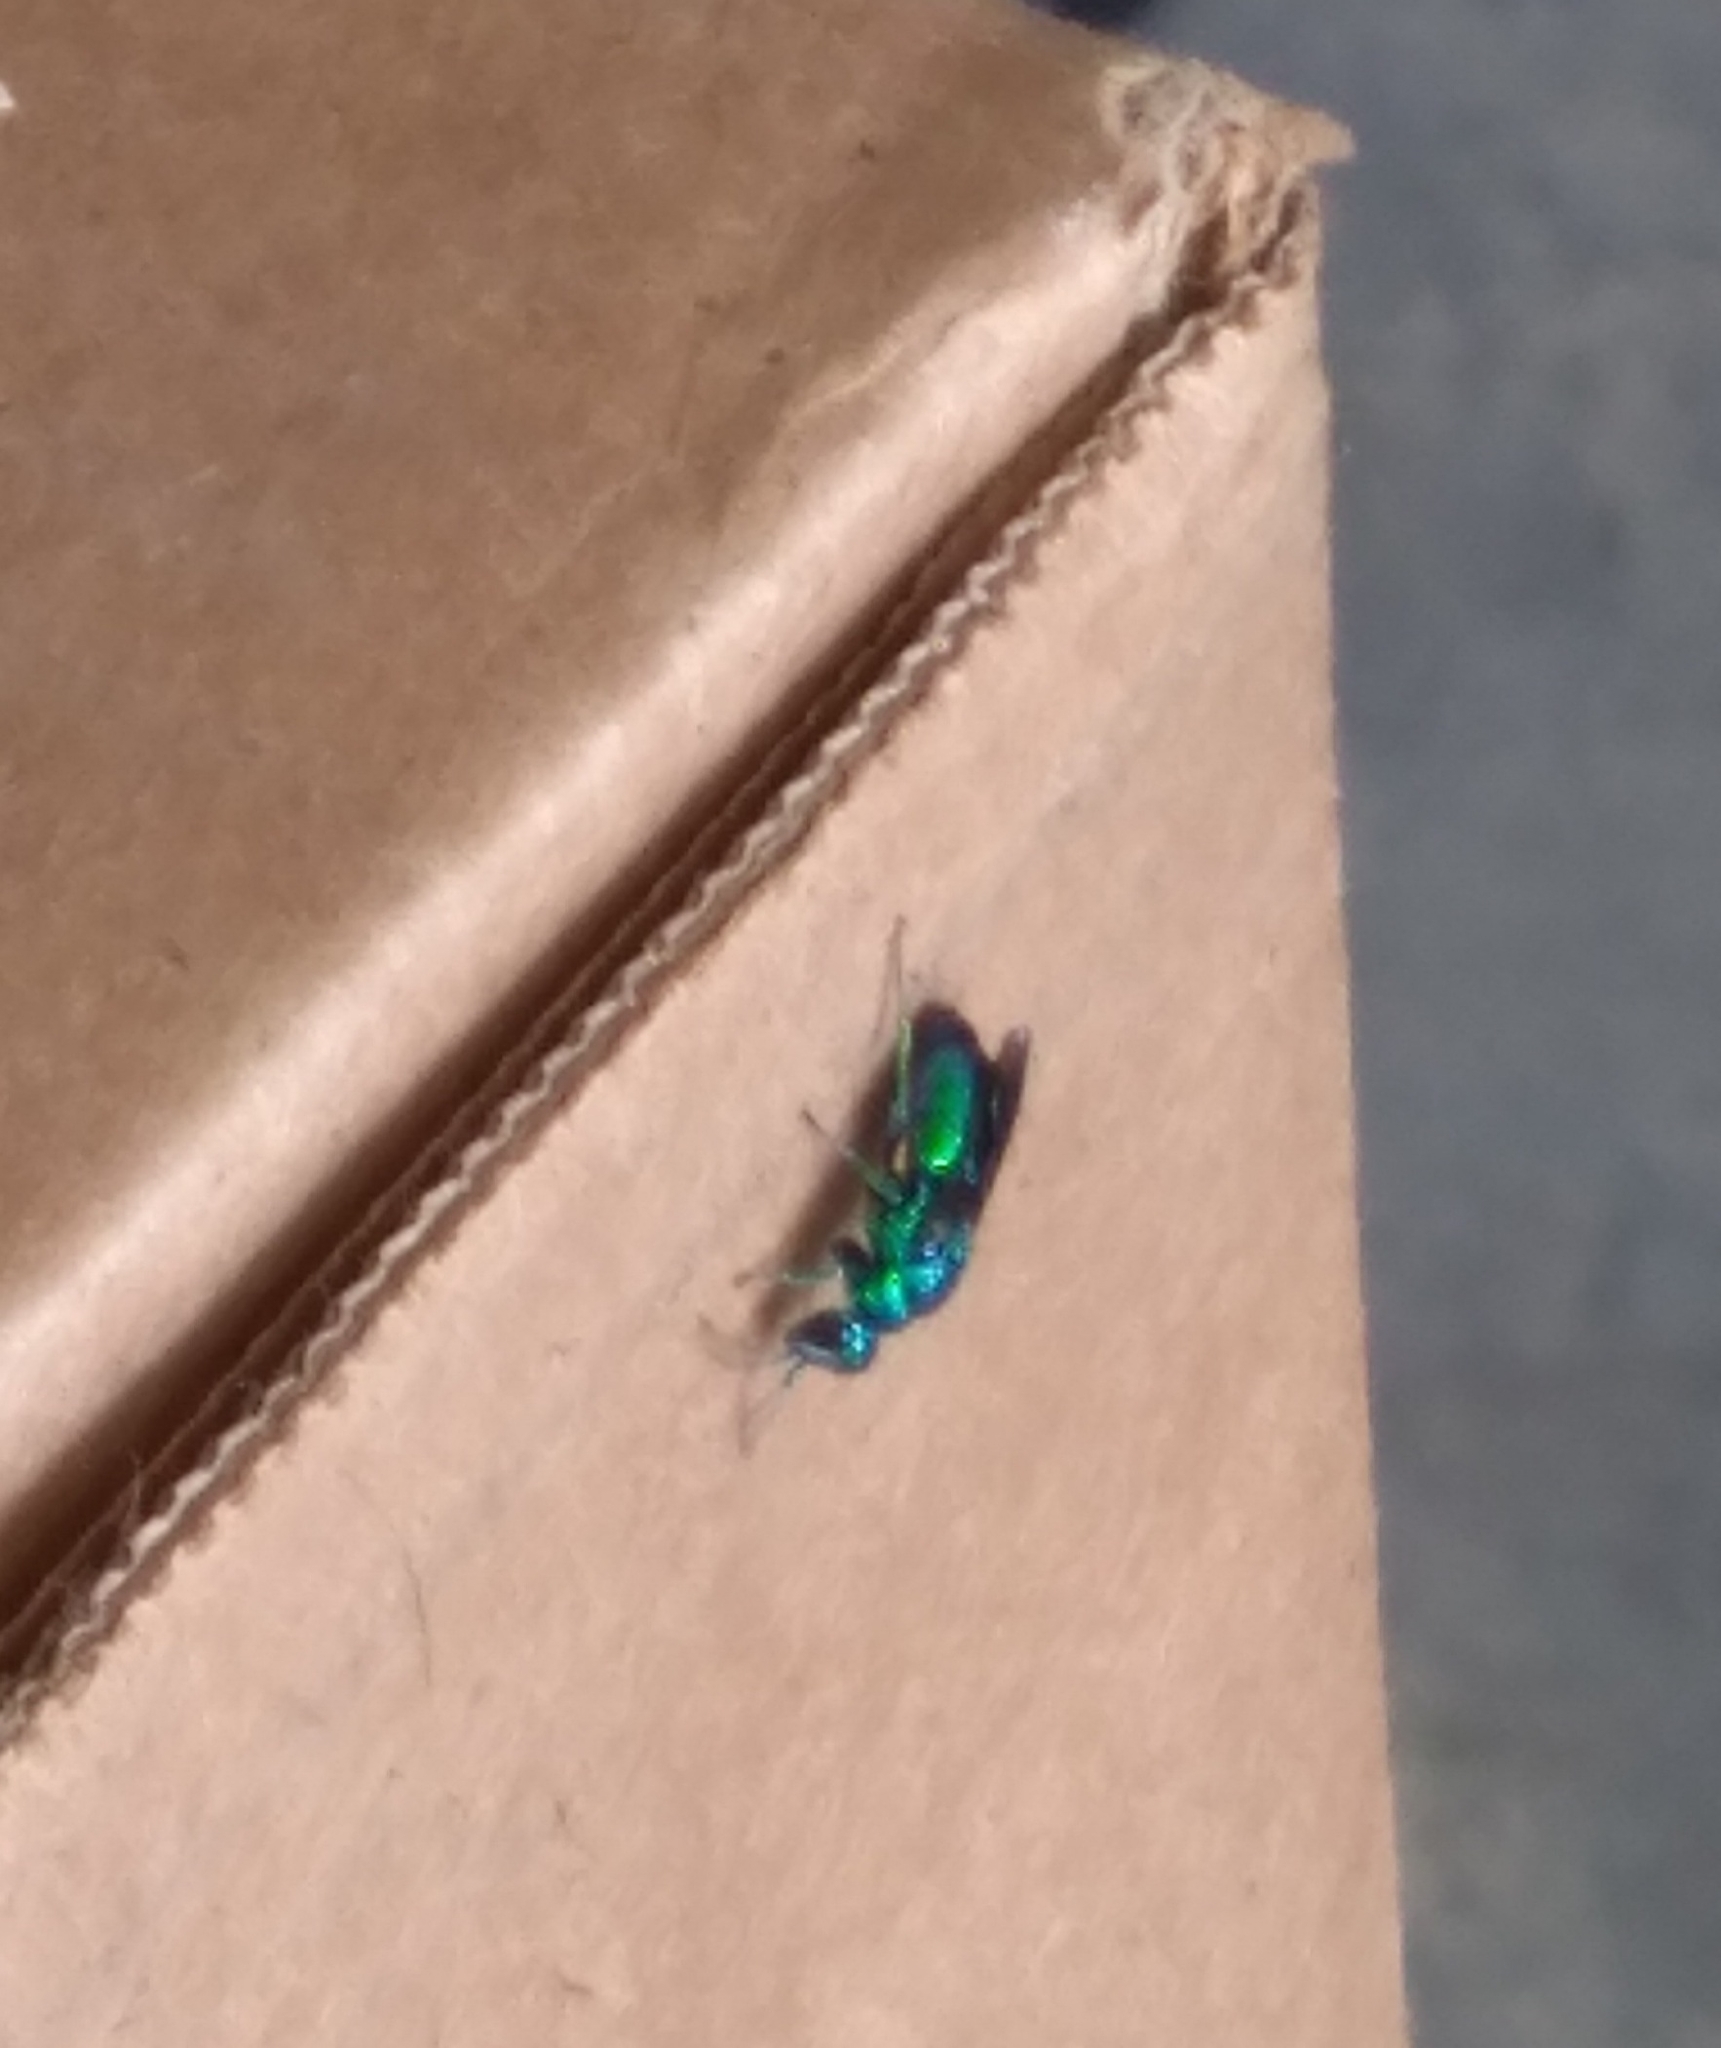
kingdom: Animalia
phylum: Arthropoda
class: Insecta
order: Hymenoptera
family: Chrysididae
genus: Chrysis
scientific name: Chrysis angolensis
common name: Cuckoo wasp
